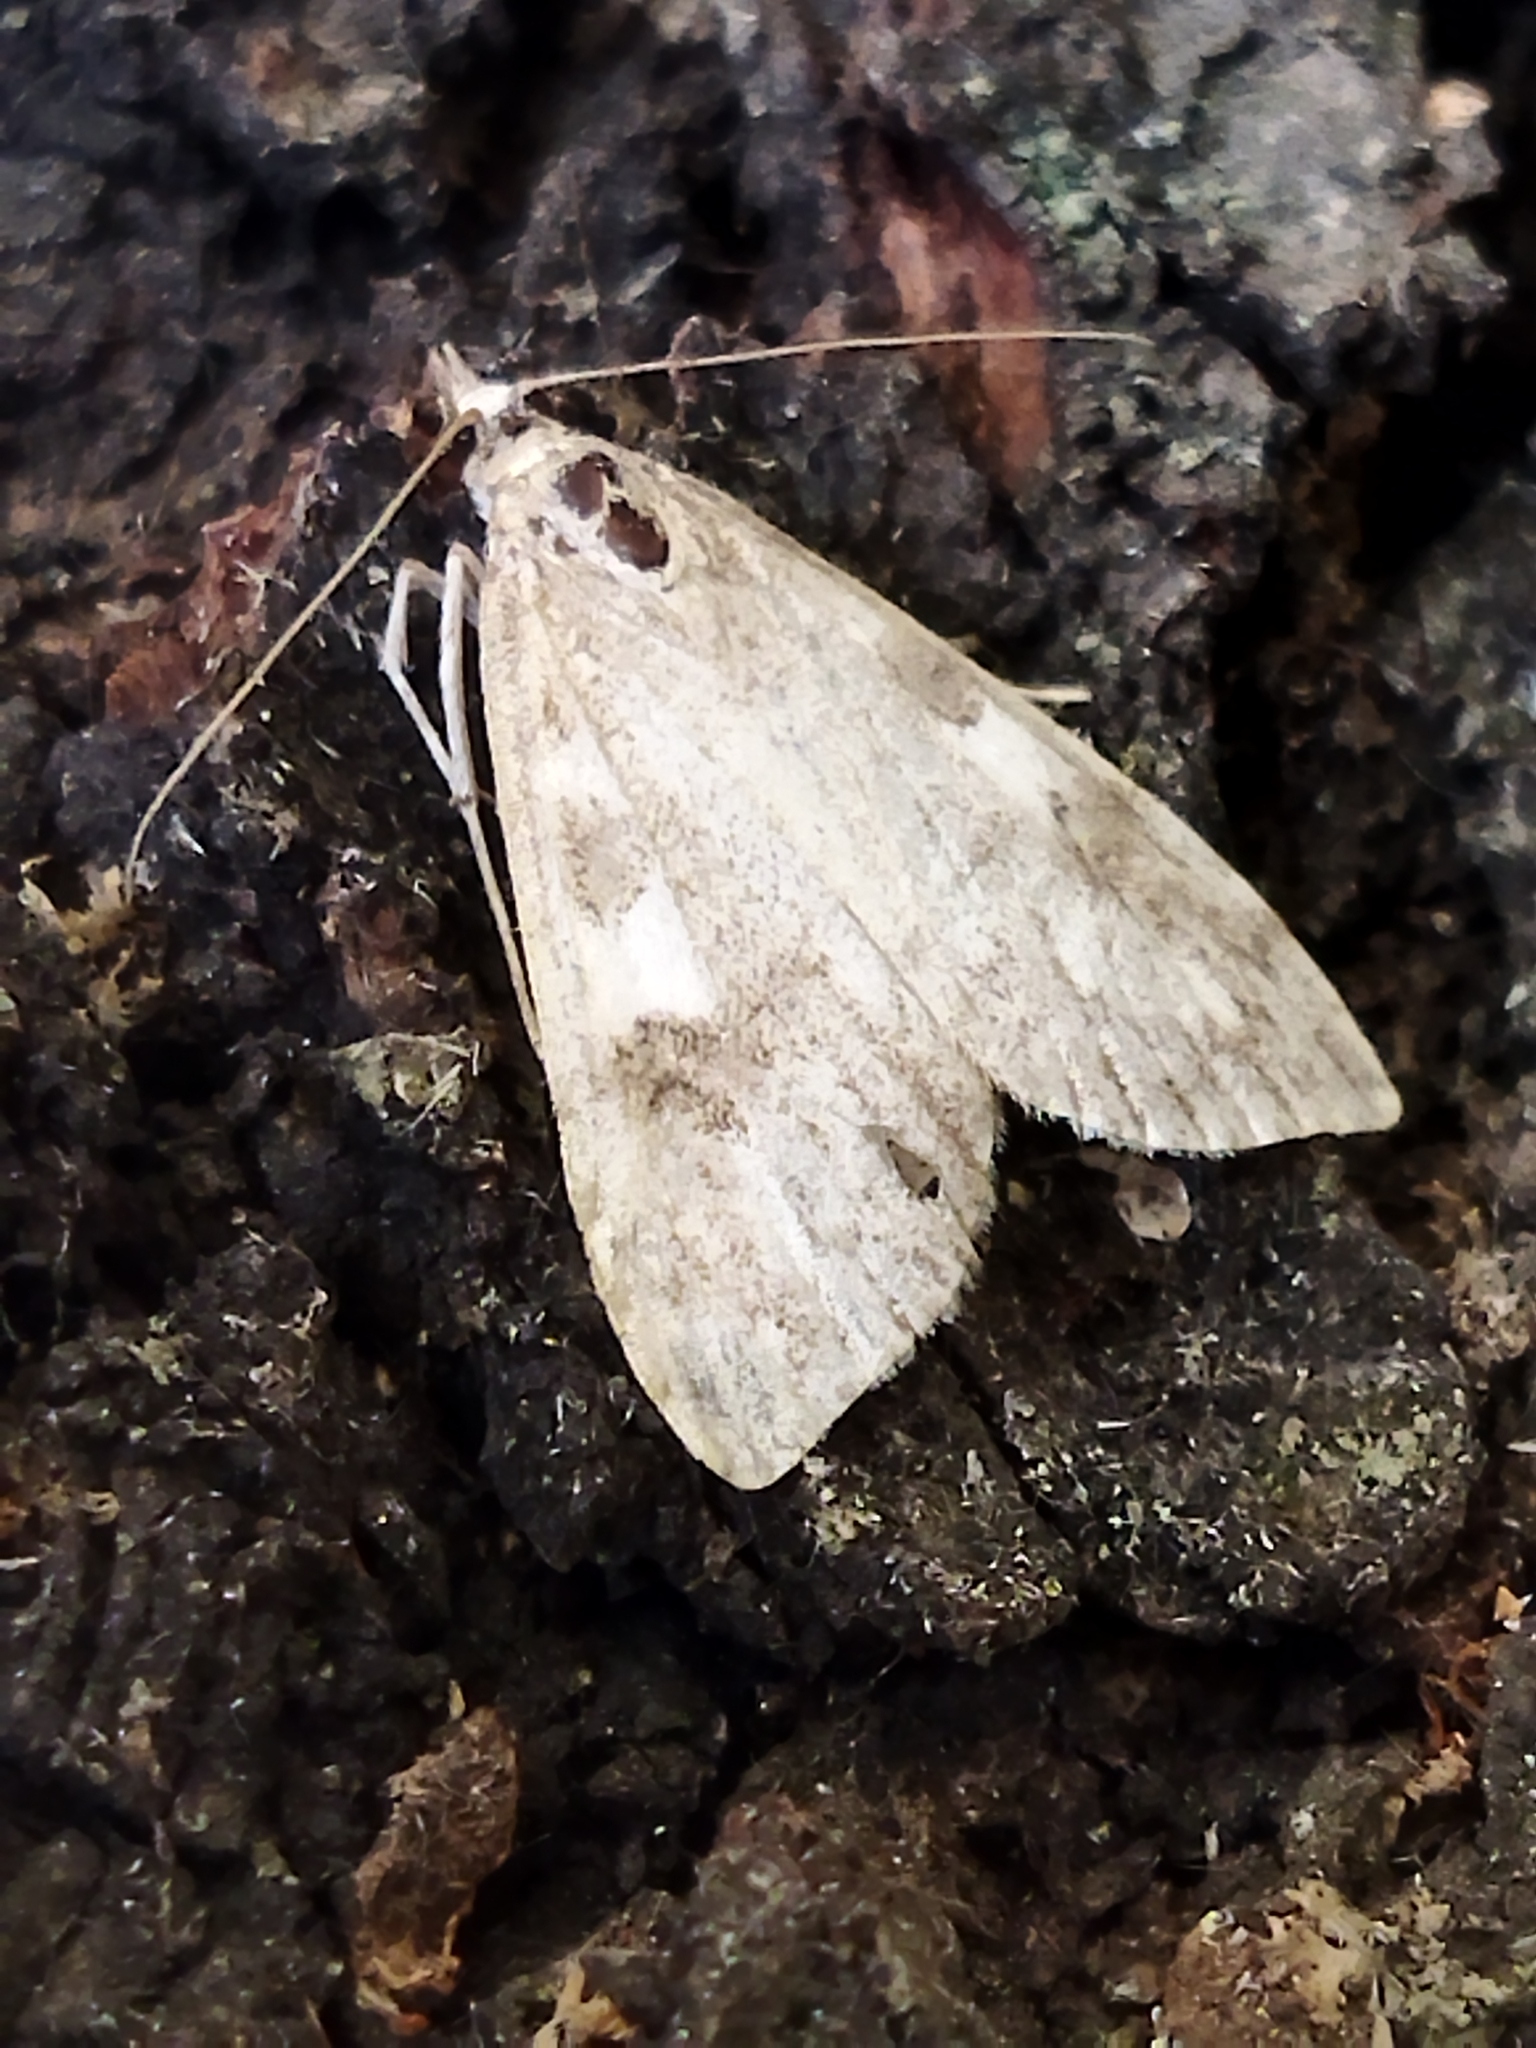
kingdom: Animalia
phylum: Arthropoda
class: Insecta
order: Lepidoptera
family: Crambidae
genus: Udea
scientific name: Udea olivalis
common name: Olive pearl
